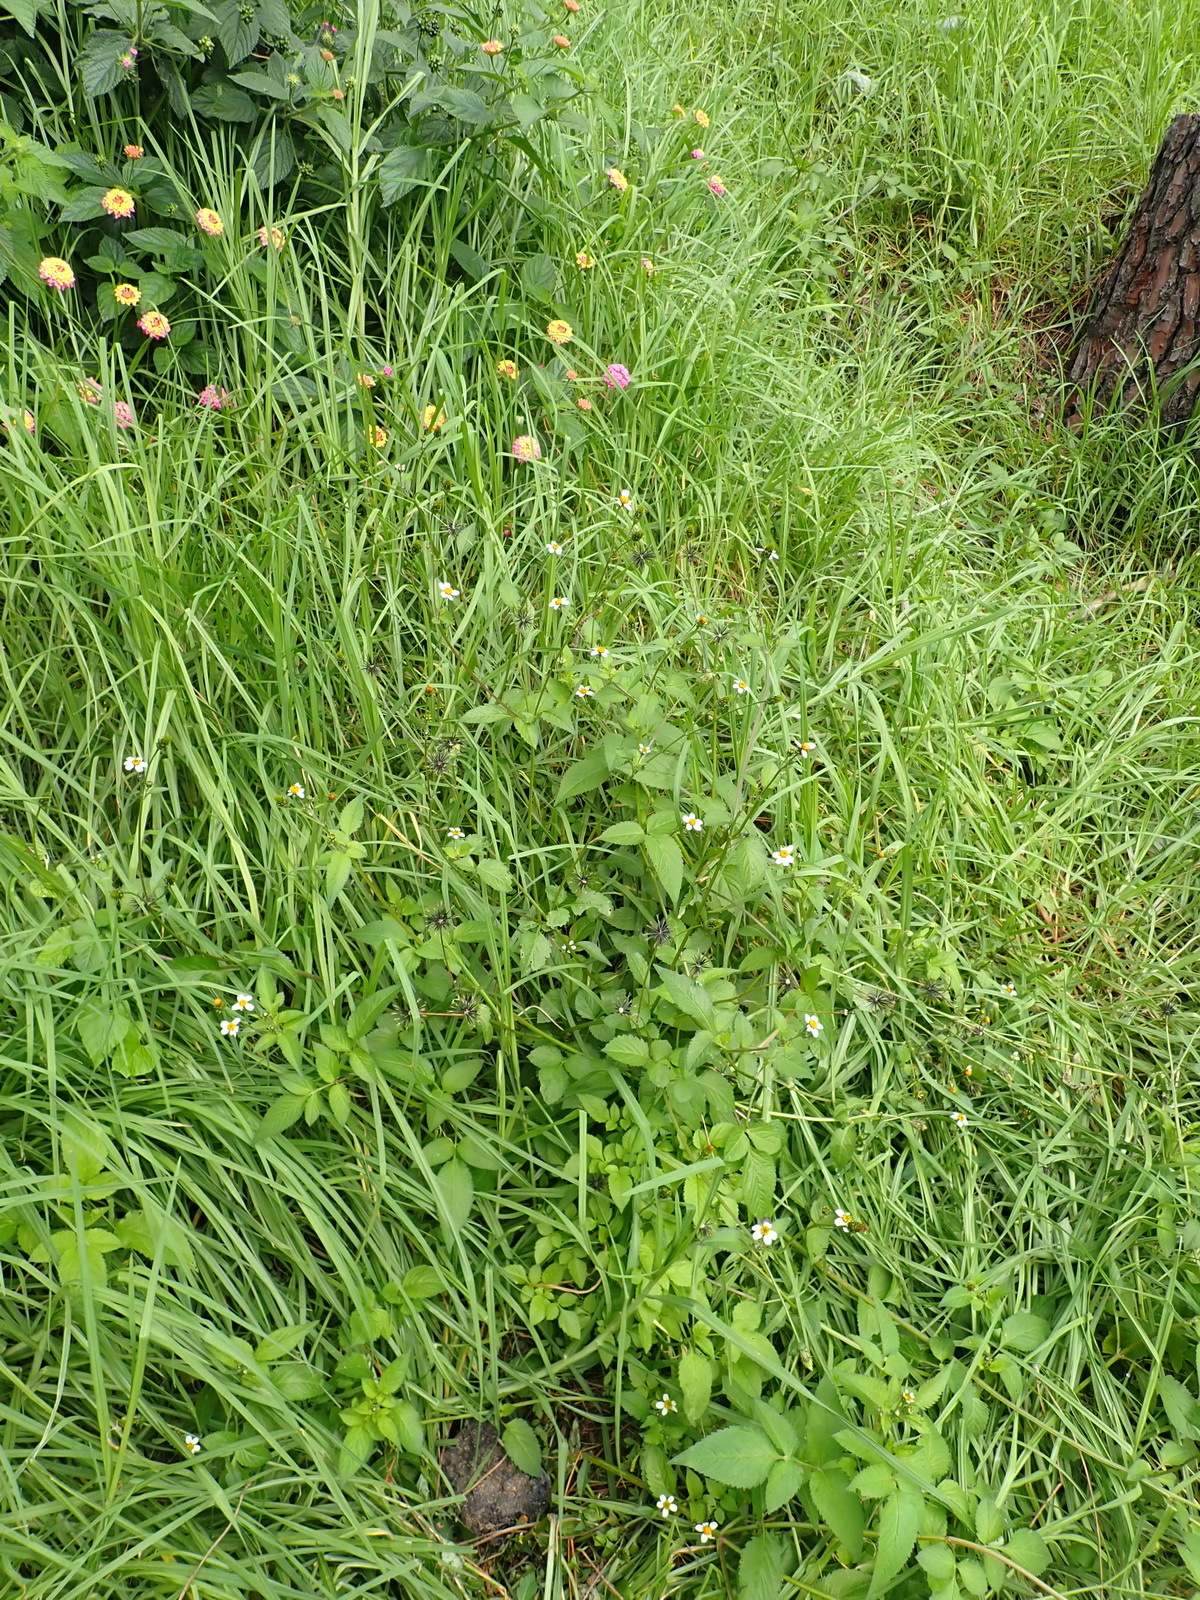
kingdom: Plantae
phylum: Tracheophyta
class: Magnoliopsida
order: Asterales
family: Asteraceae
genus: Bidens
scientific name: Bidens pilosa
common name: Black-jack
